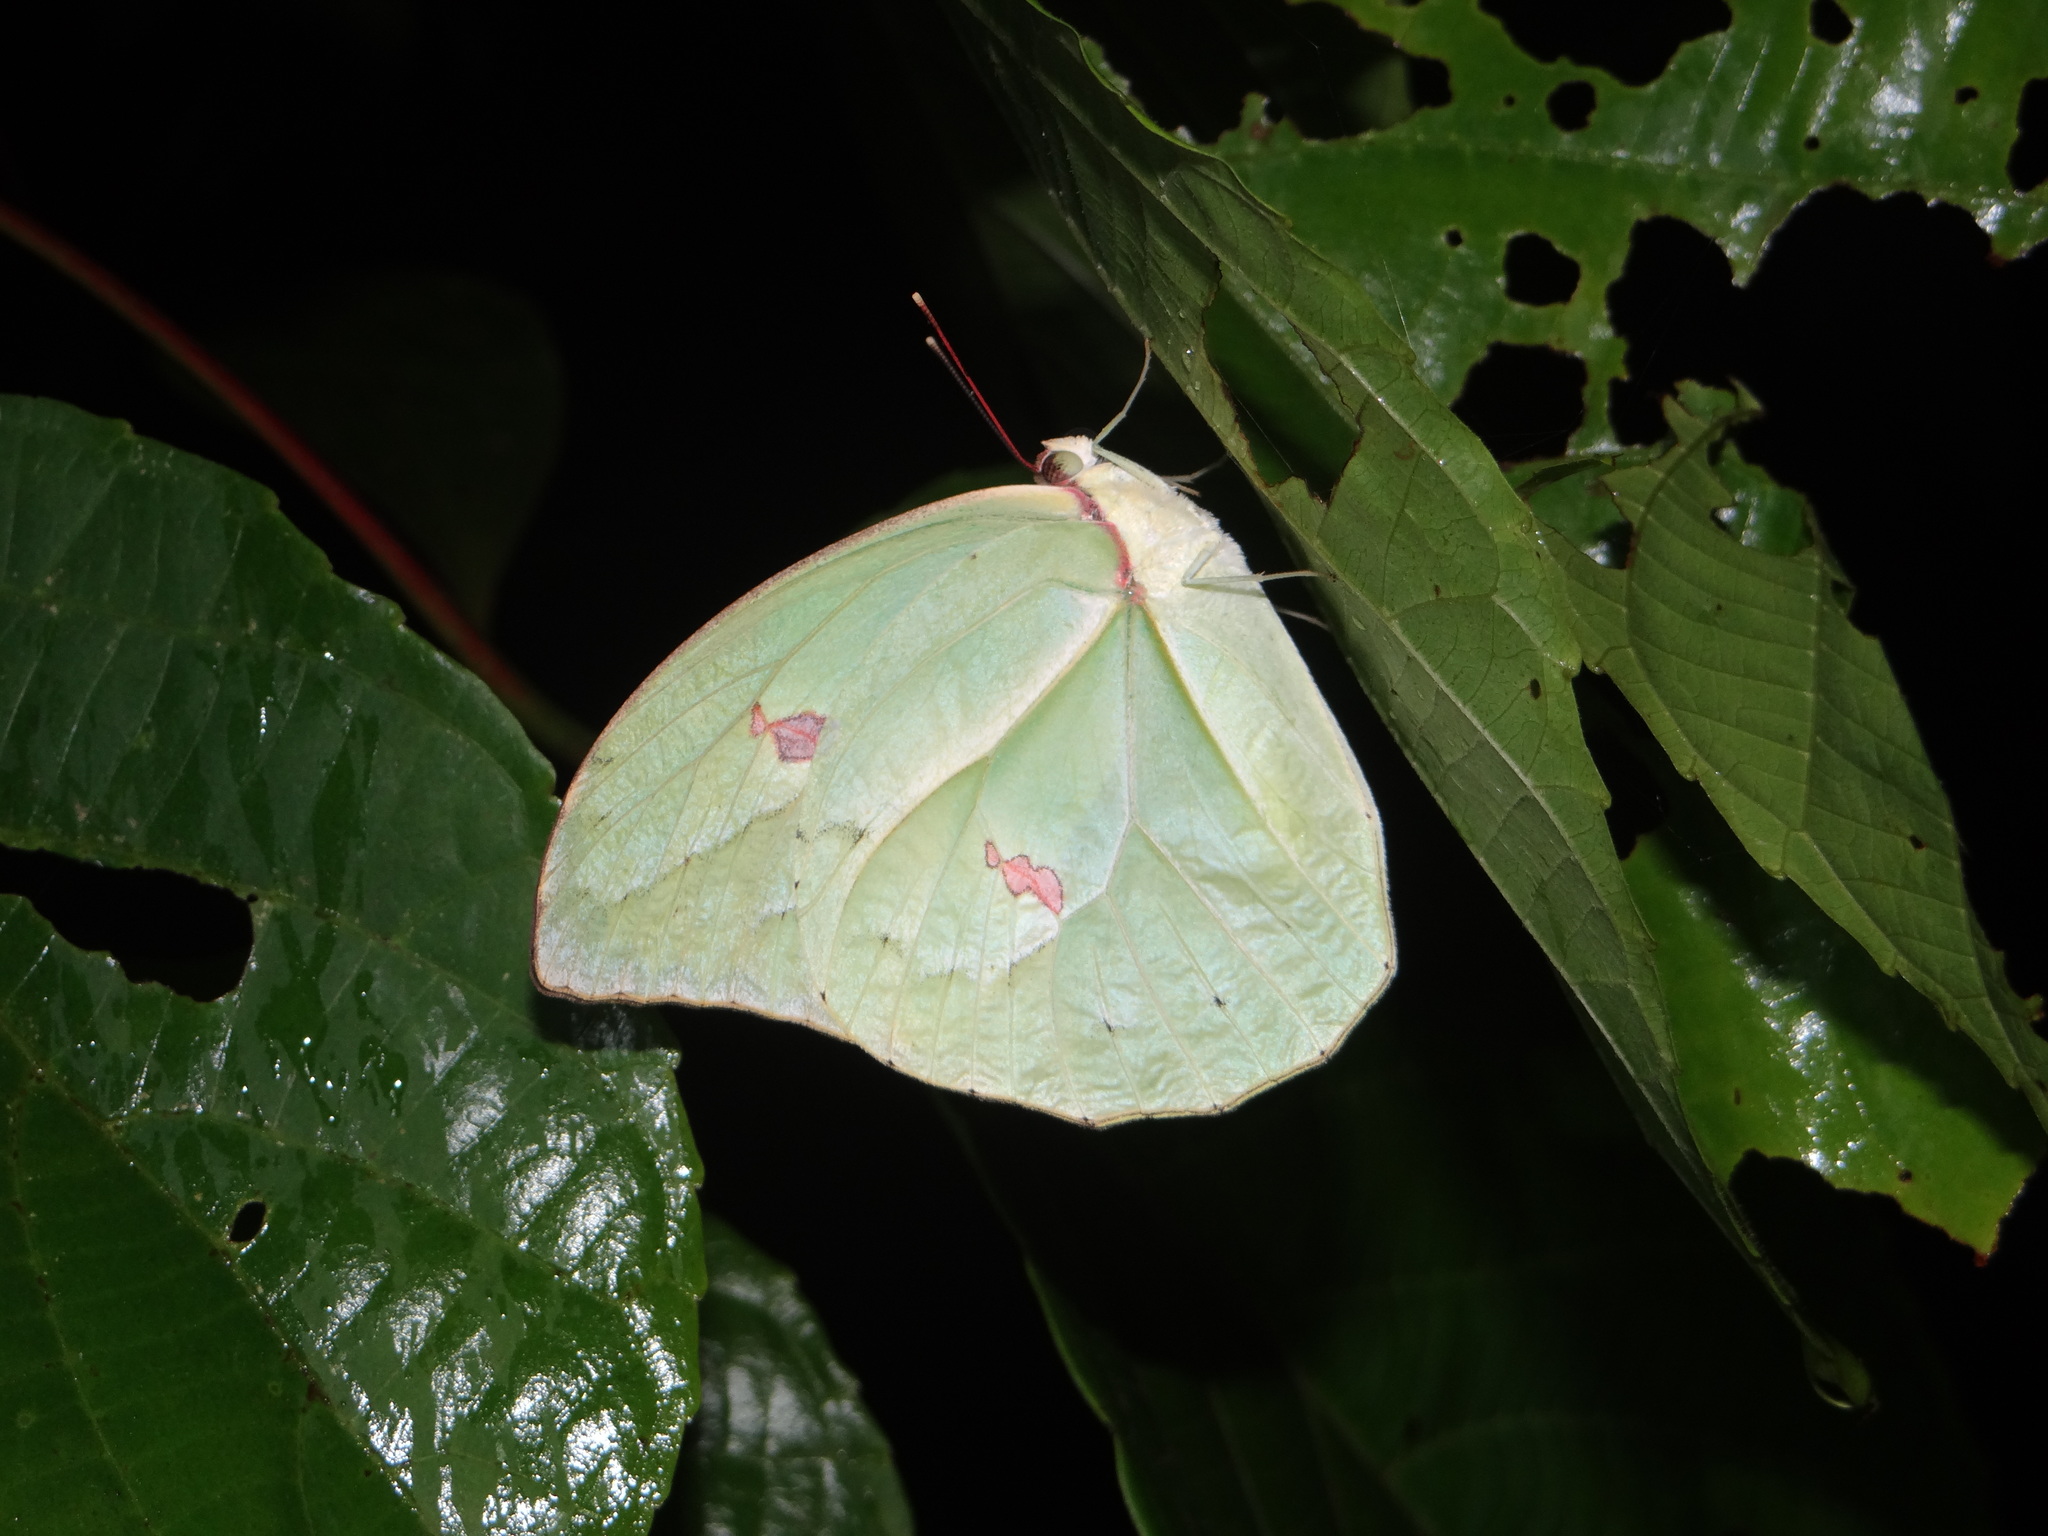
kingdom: Animalia
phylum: Arthropoda
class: Insecta
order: Lepidoptera
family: Pieridae
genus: Anteos
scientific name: Anteos menippe
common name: Orangetip angled-sulphur
